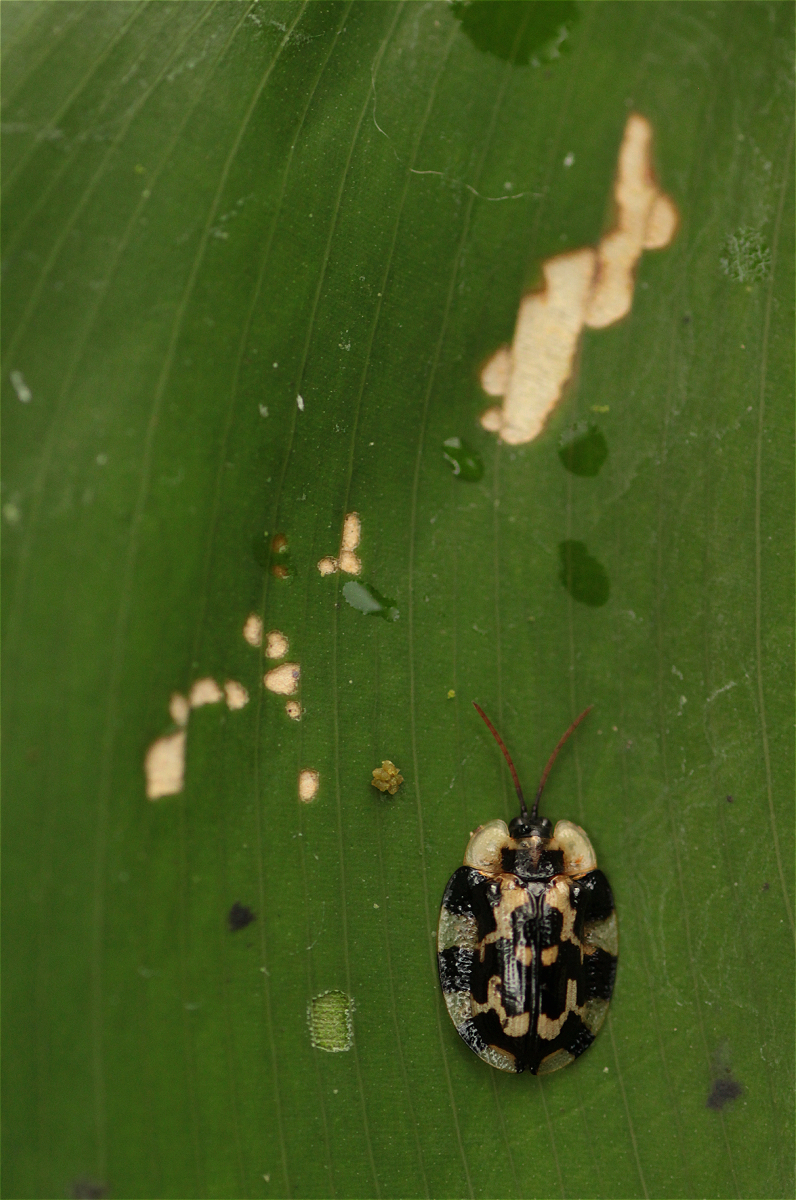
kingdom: Animalia
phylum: Arthropoda
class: Insecta
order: Coleoptera
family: Chrysomelidae
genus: Aslamidium
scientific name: Aslamidium capense
